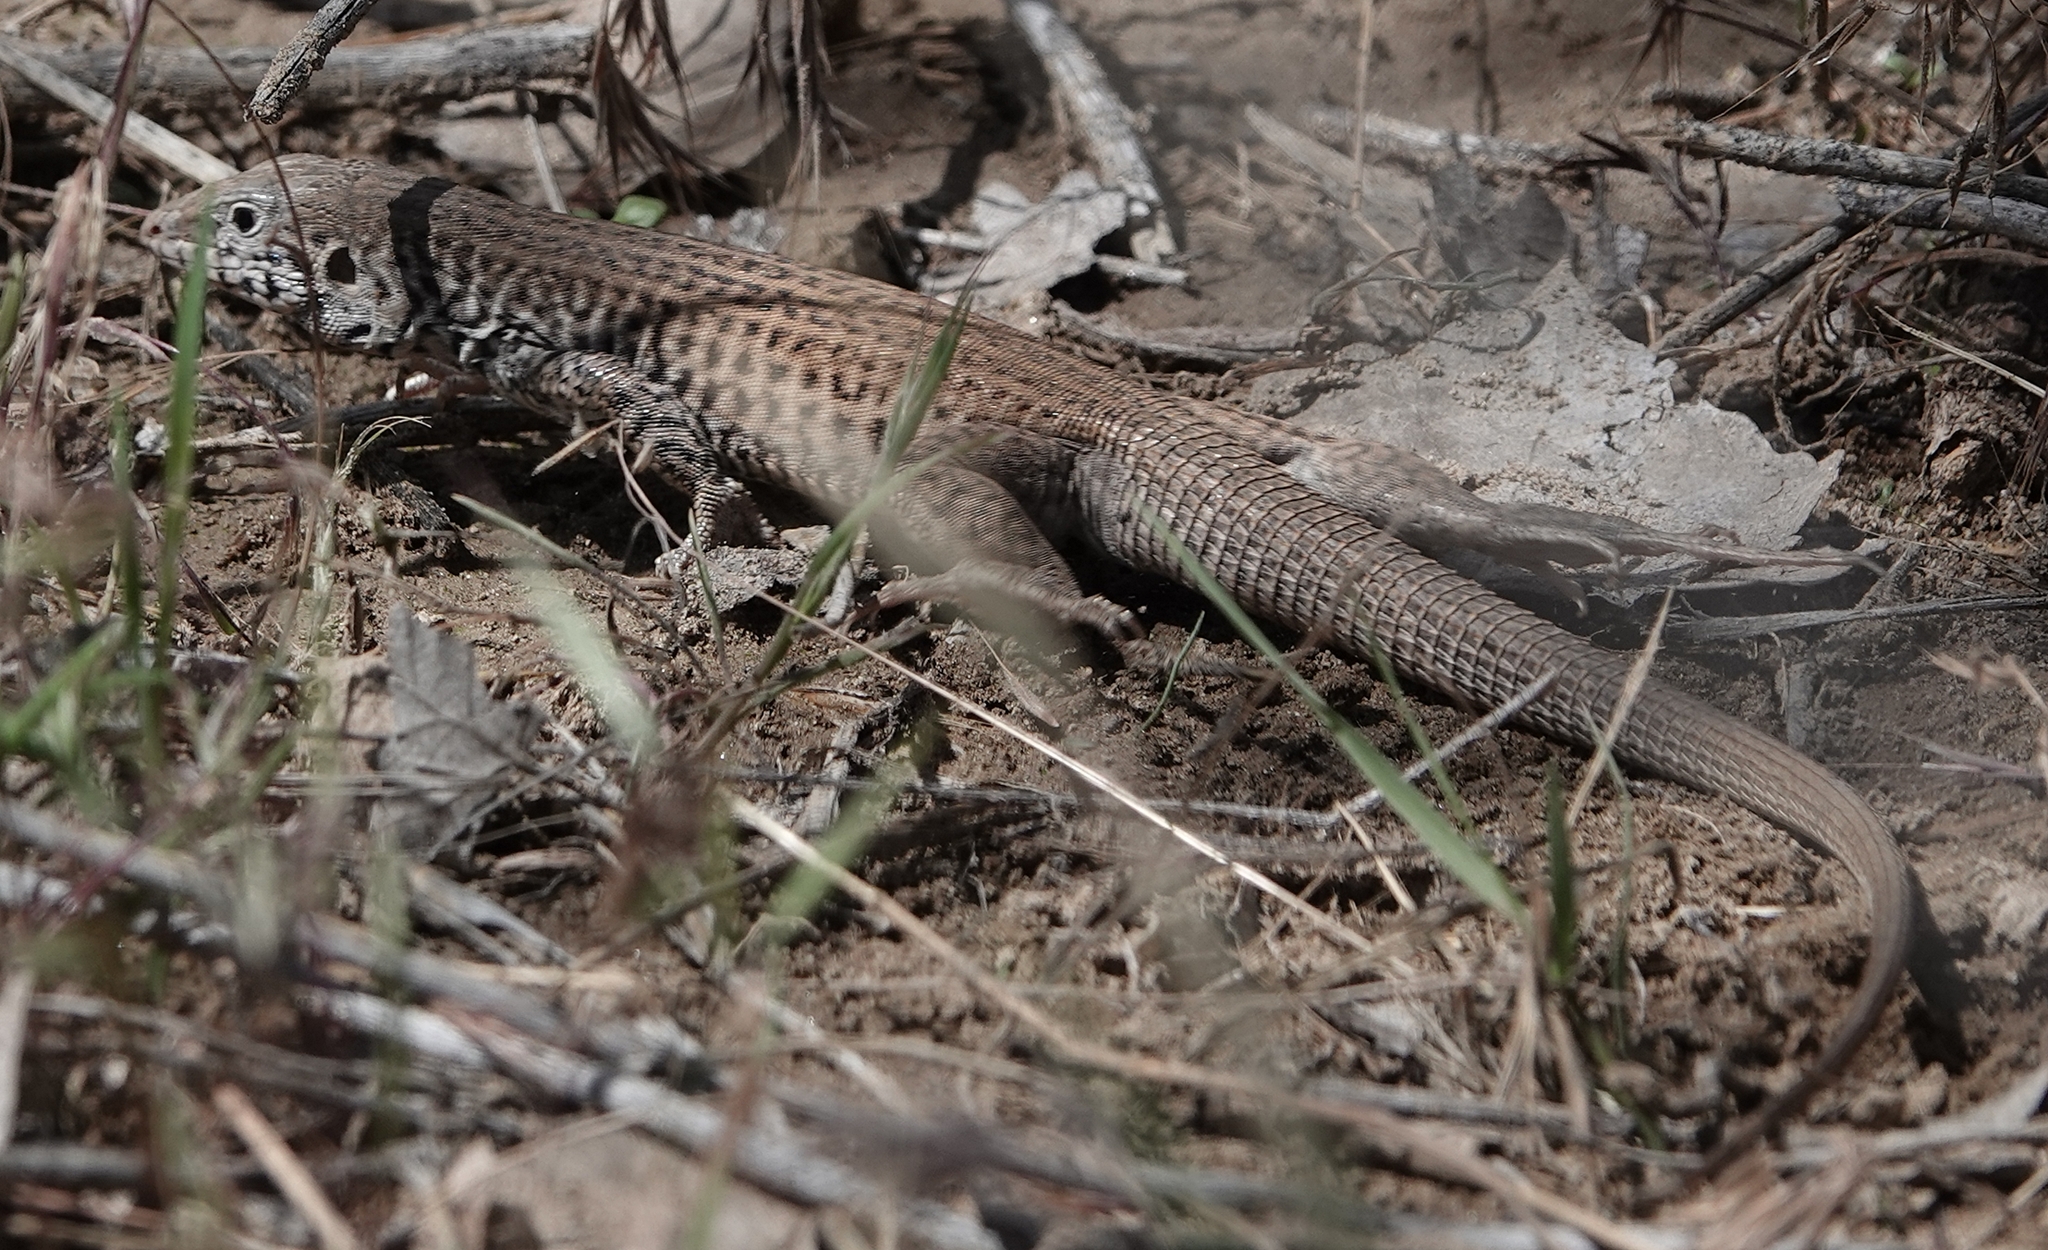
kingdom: Animalia
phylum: Chordata
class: Squamata
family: Teiidae
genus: Aspidoscelis
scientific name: Aspidoscelis tigris
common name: Tiger whiptail
